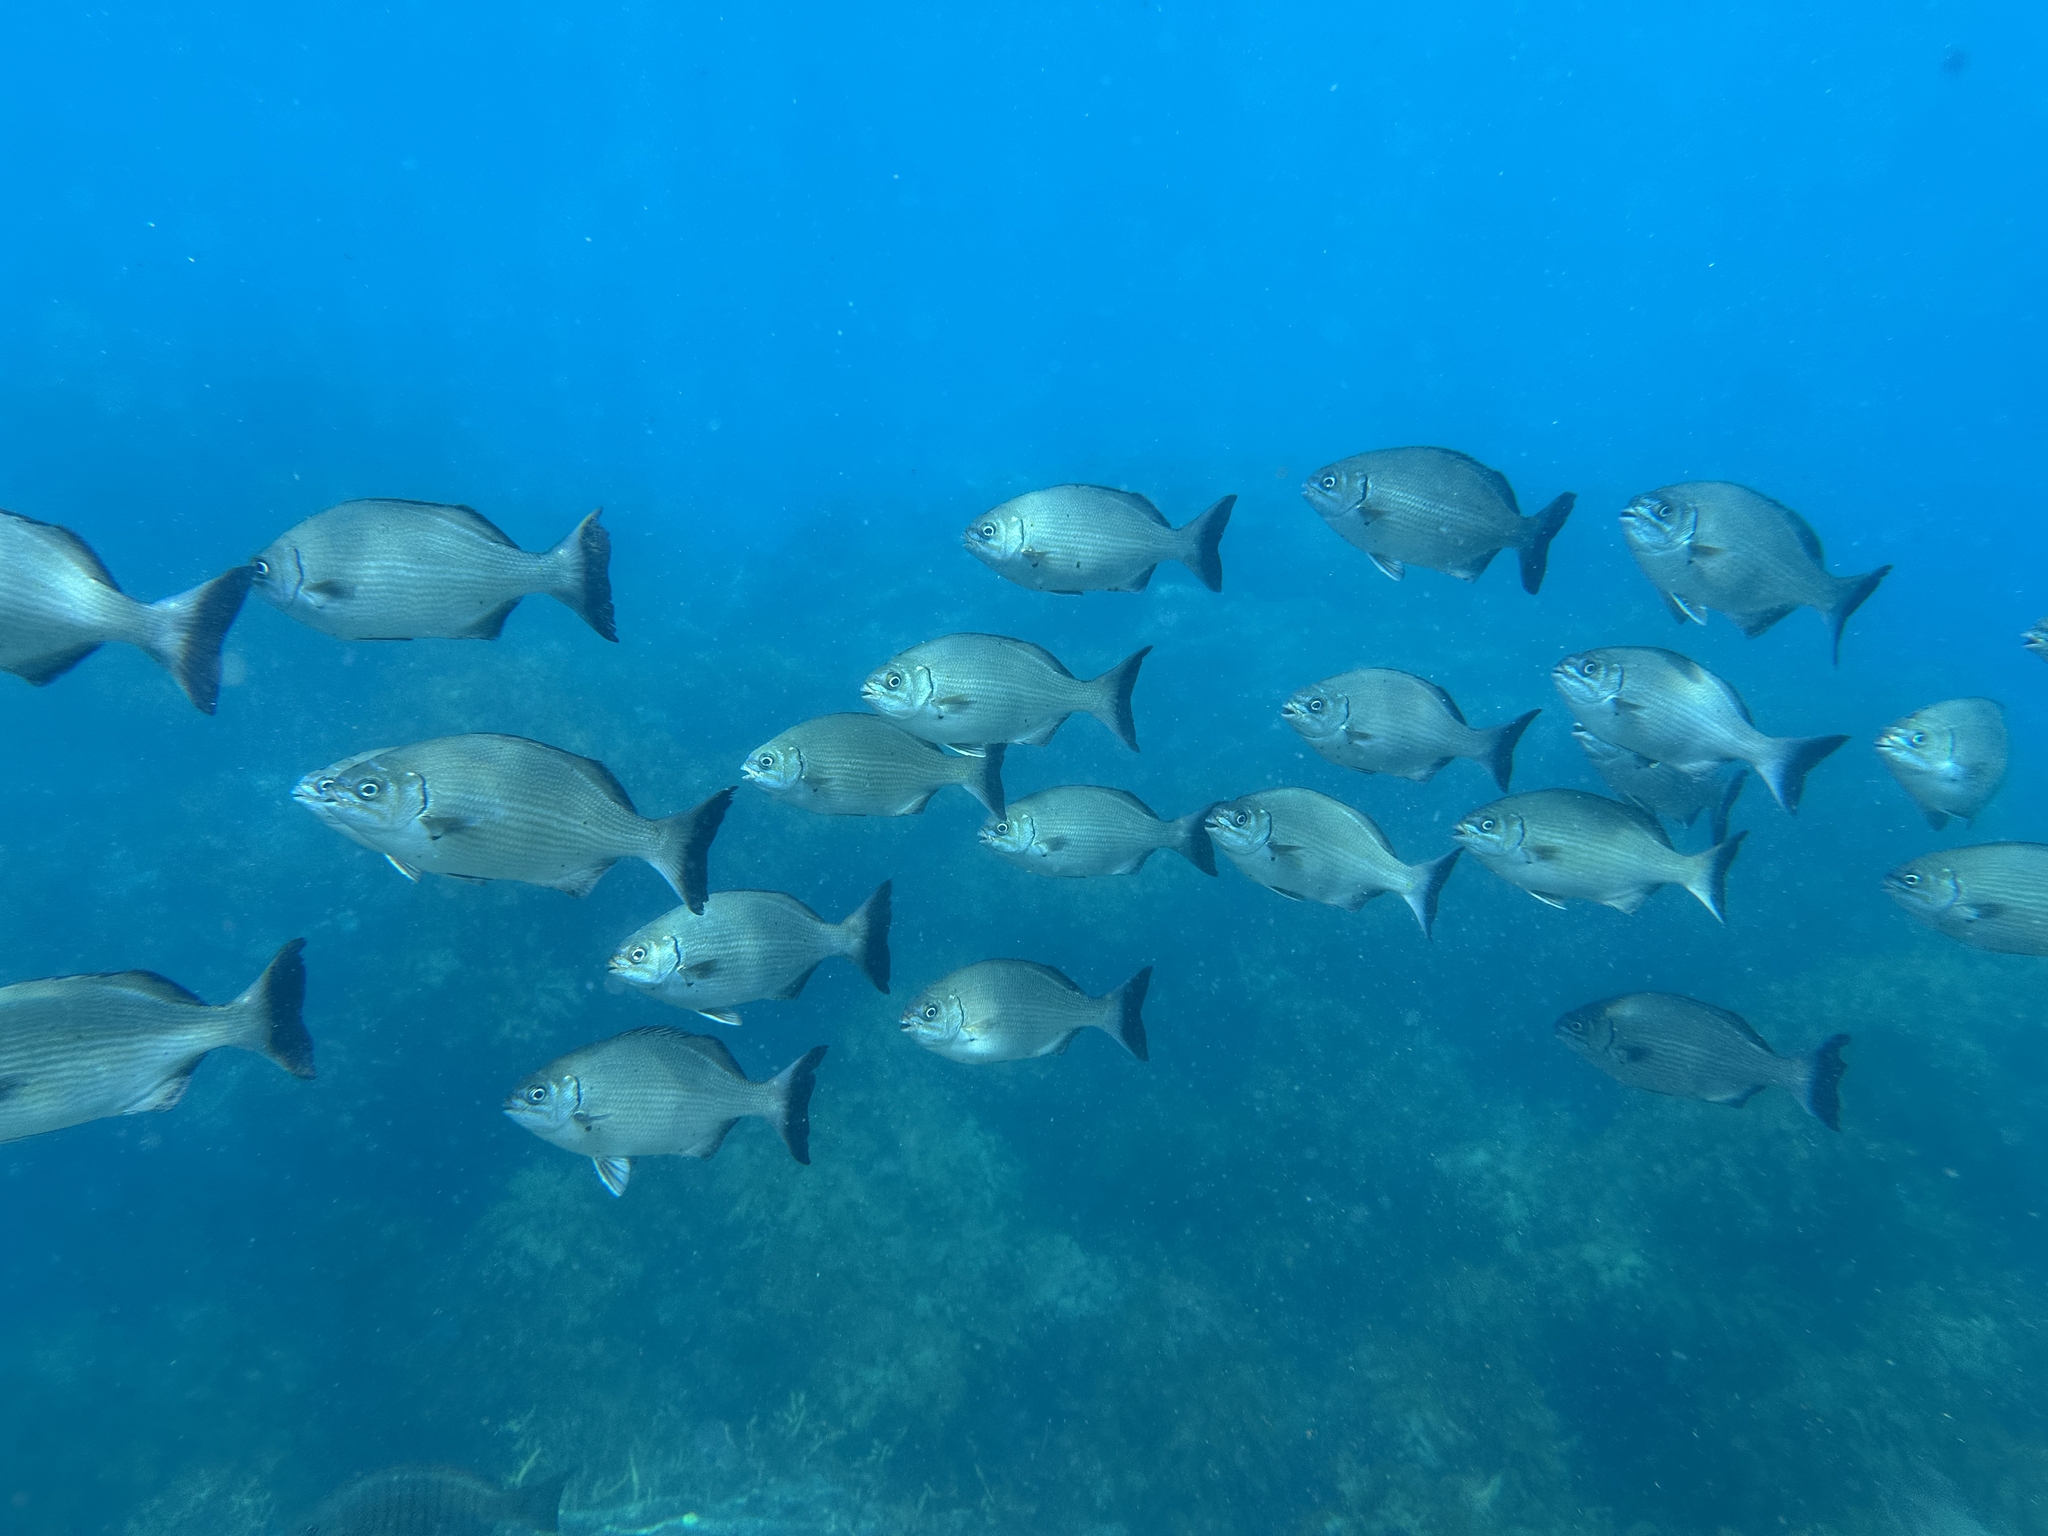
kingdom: Animalia
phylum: Chordata
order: Perciformes
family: Kyphosidae
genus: Kyphosus
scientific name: Kyphosus sydneyanus
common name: Silver drummer
